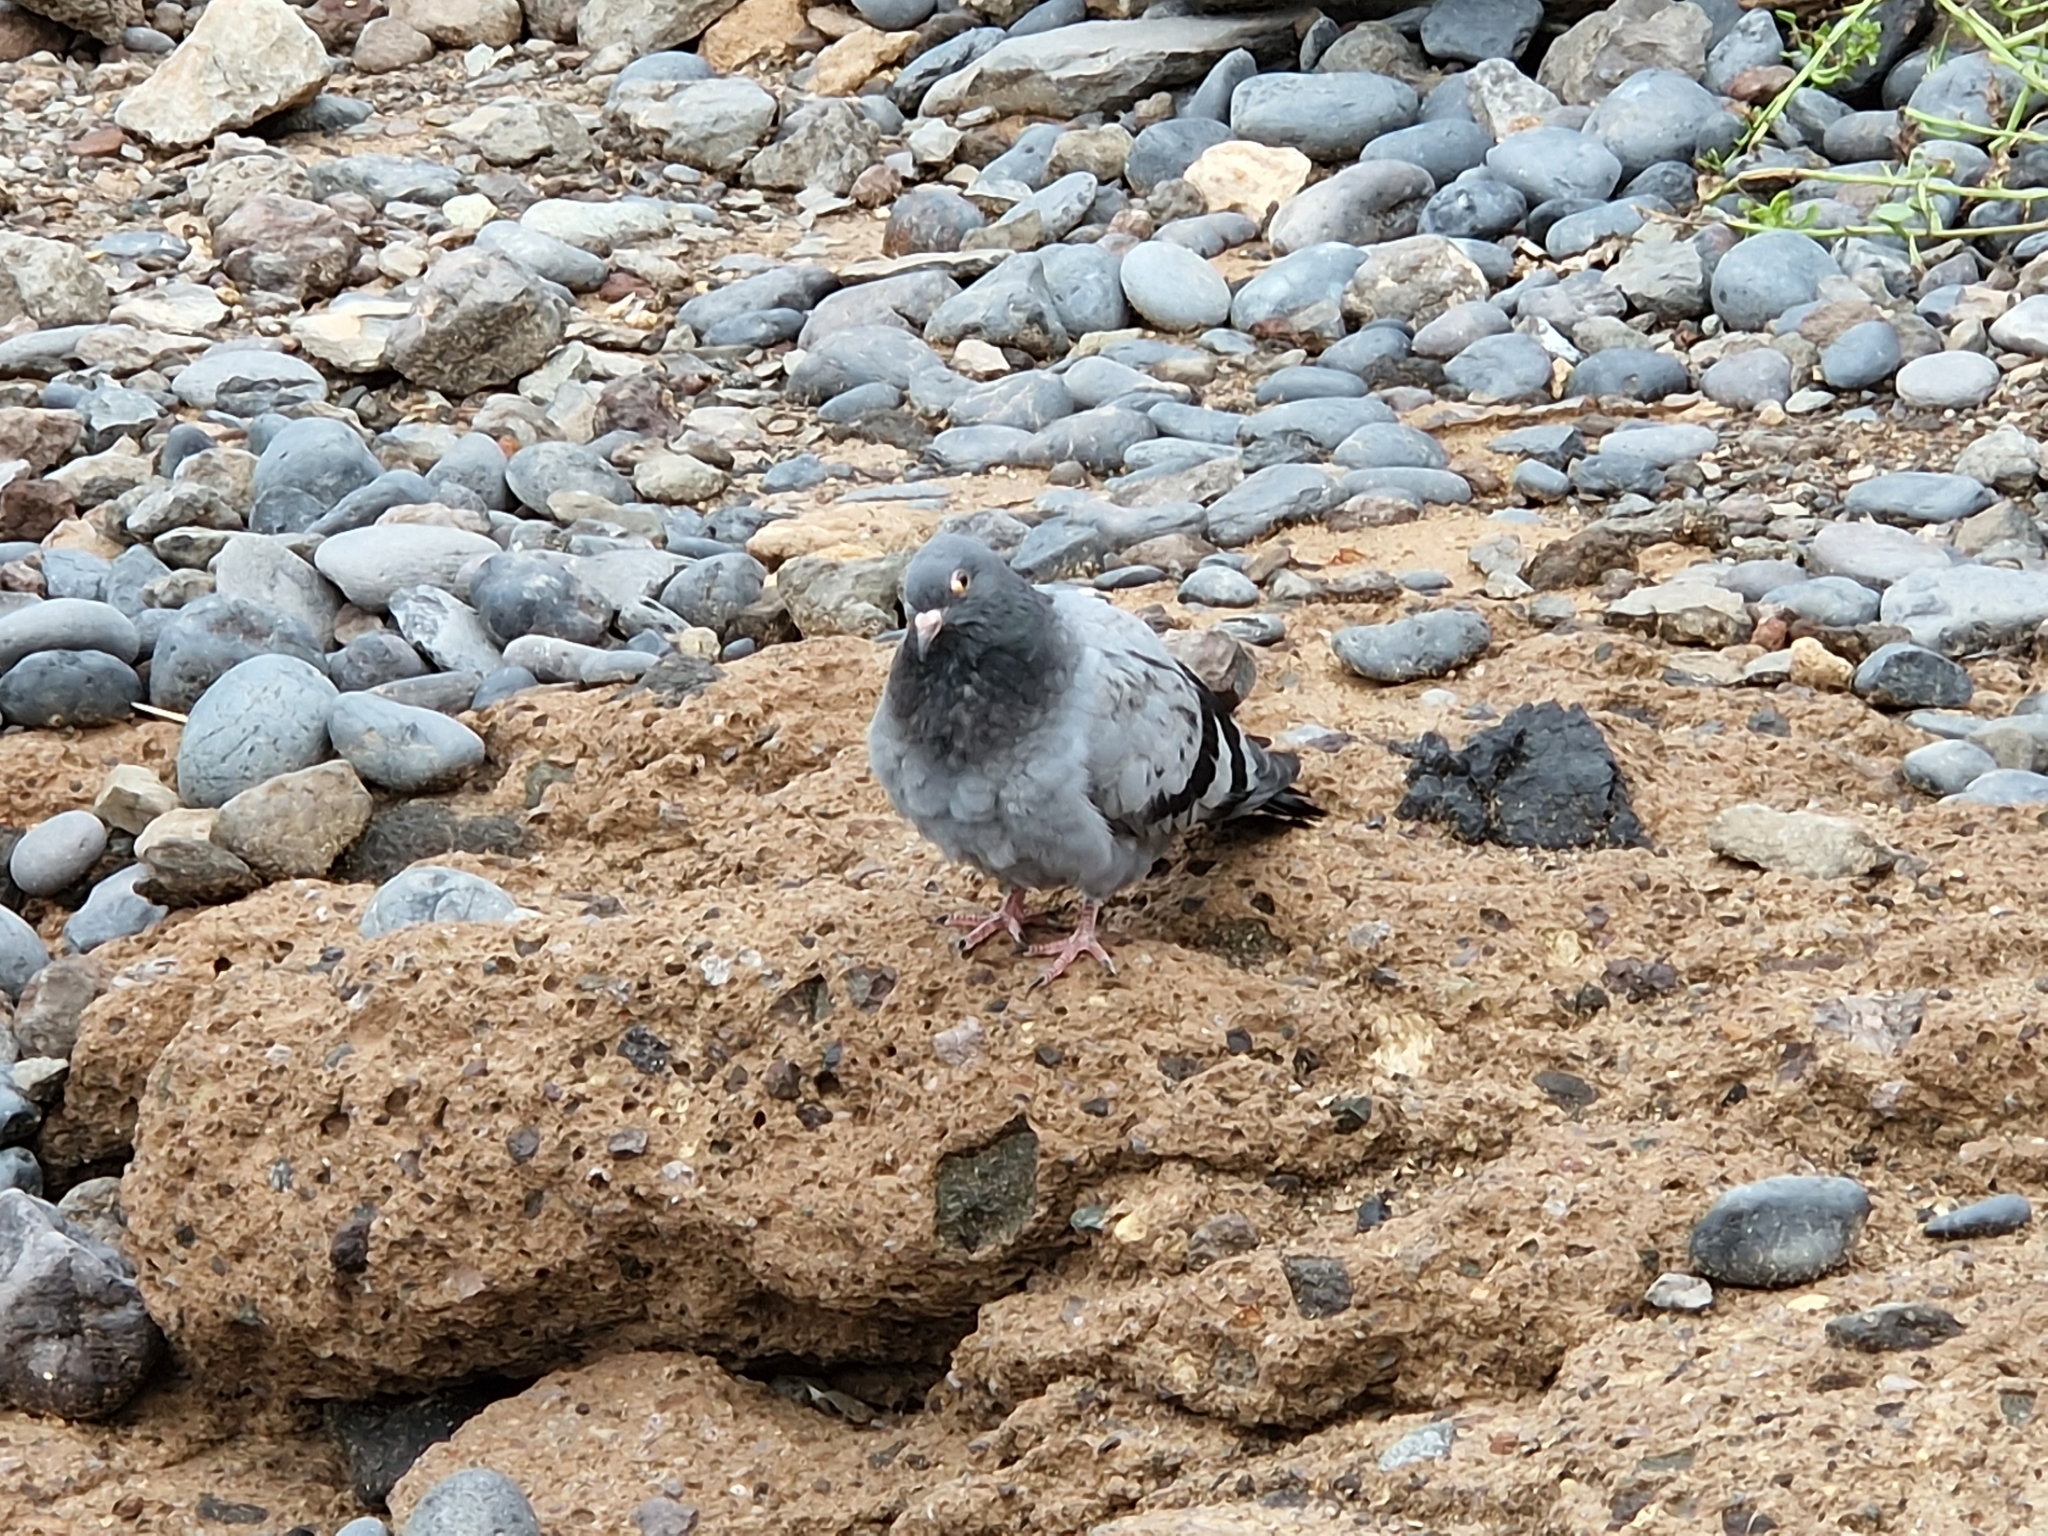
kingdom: Animalia
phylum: Chordata
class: Aves
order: Columbiformes
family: Columbidae
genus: Columba
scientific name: Columba livia
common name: Rock pigeon
